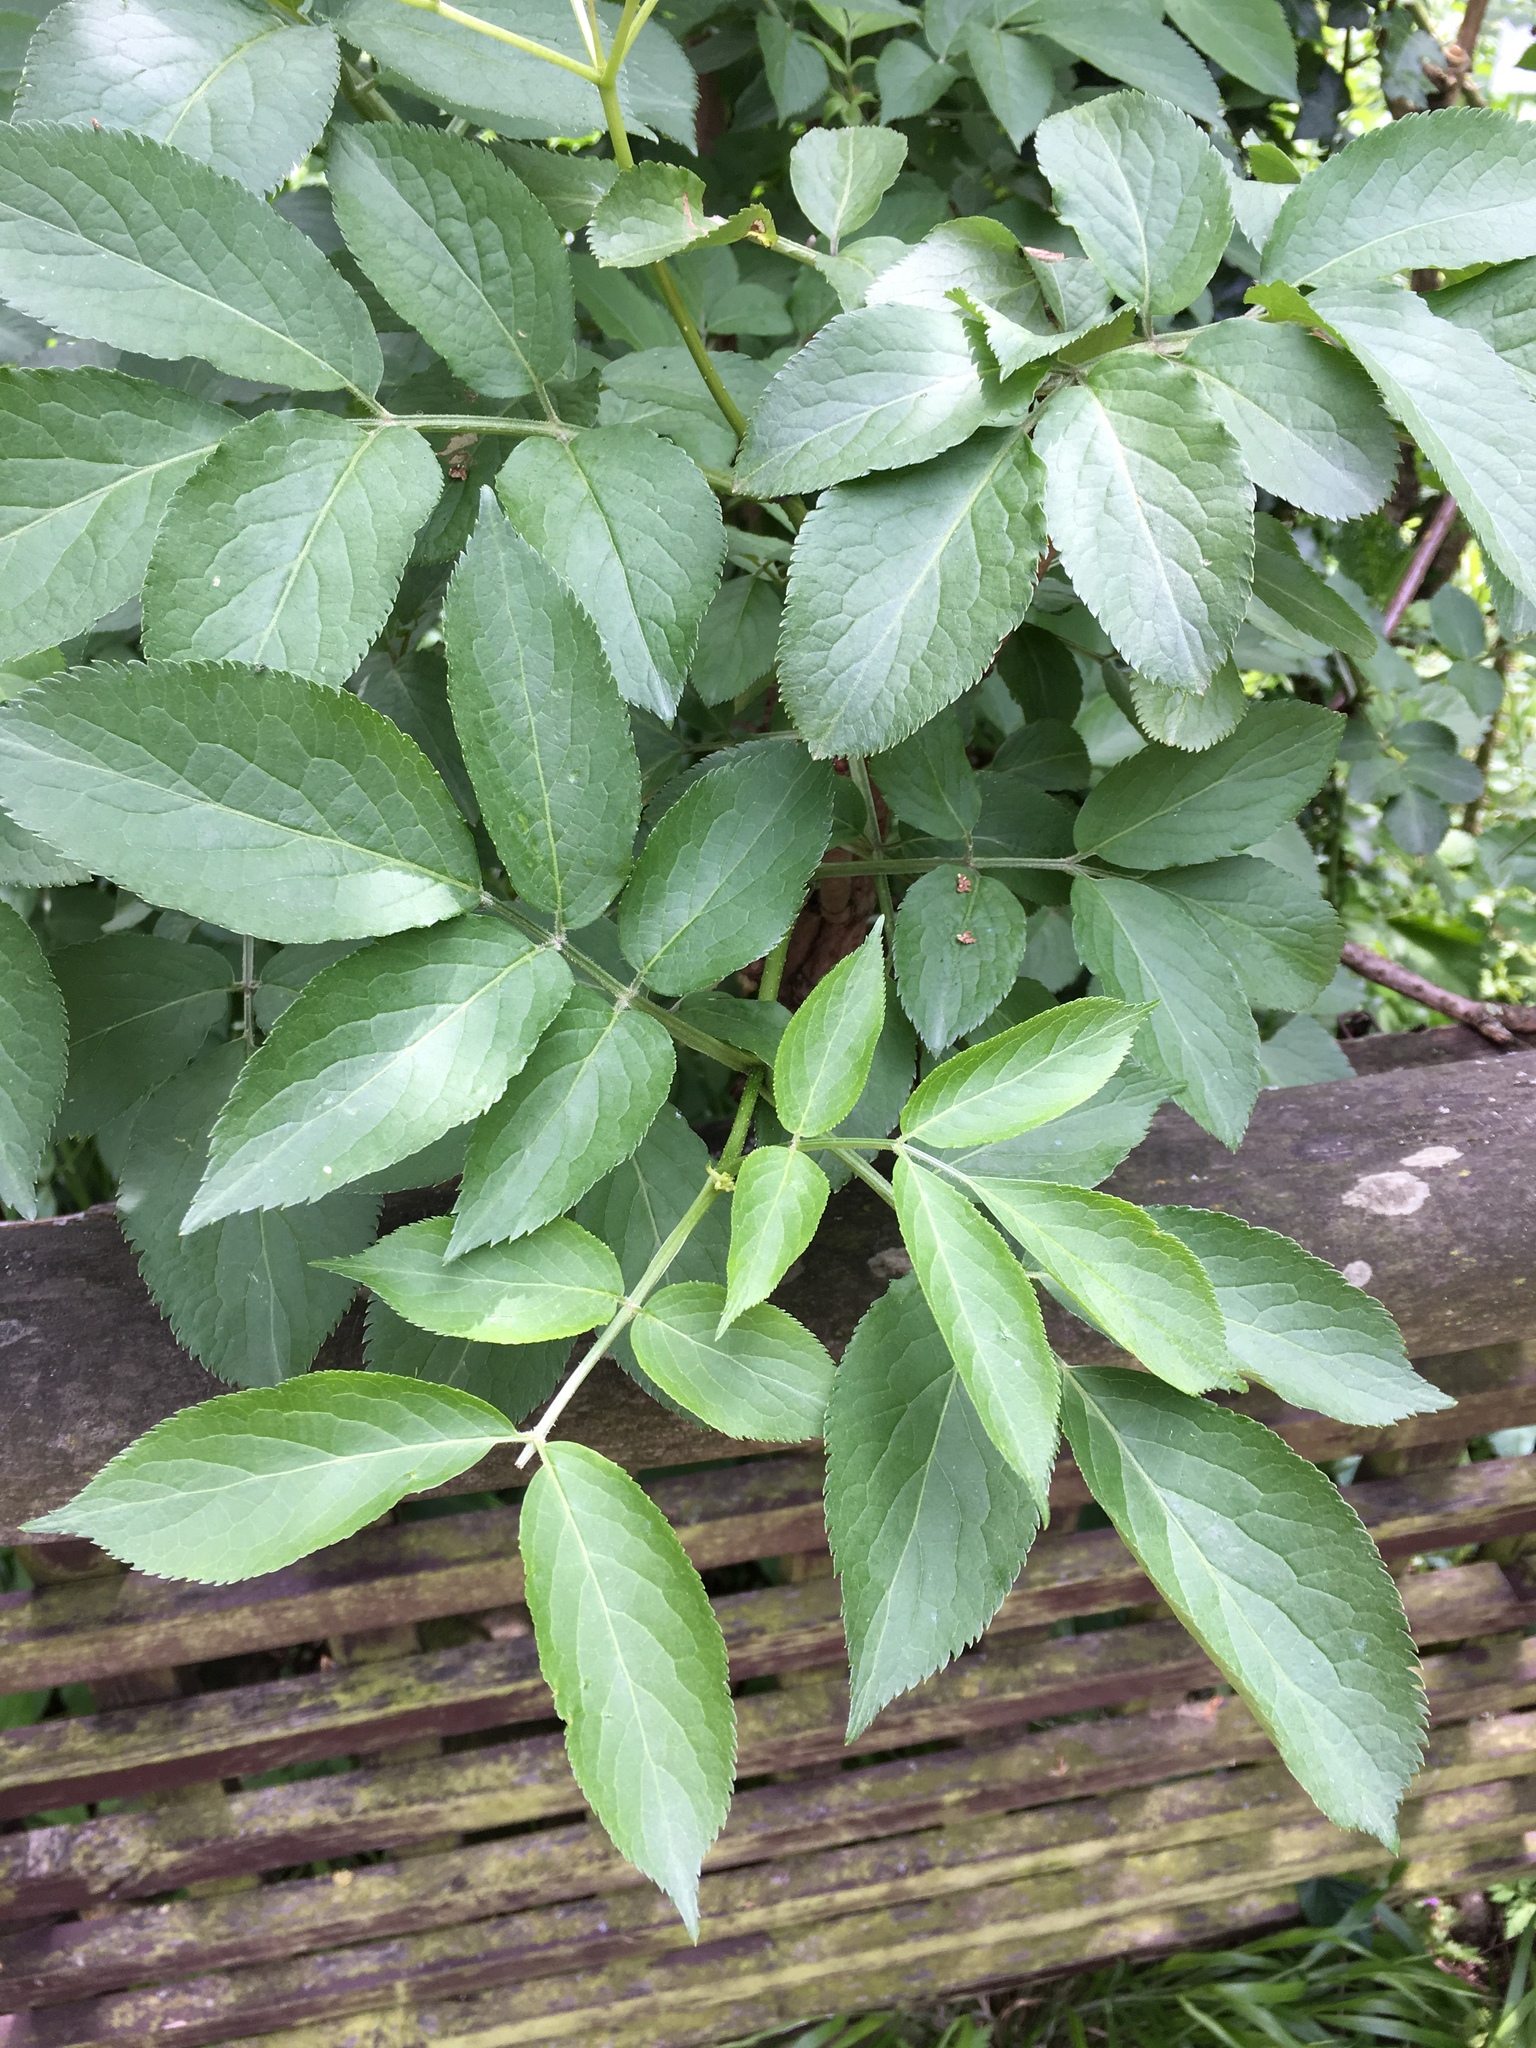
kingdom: Plantae
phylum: Tracheophyta
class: Magnoliopsida
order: Dipsacales
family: Viburnaceae
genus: Sambucus
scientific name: Sambucus nigra
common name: Elder
